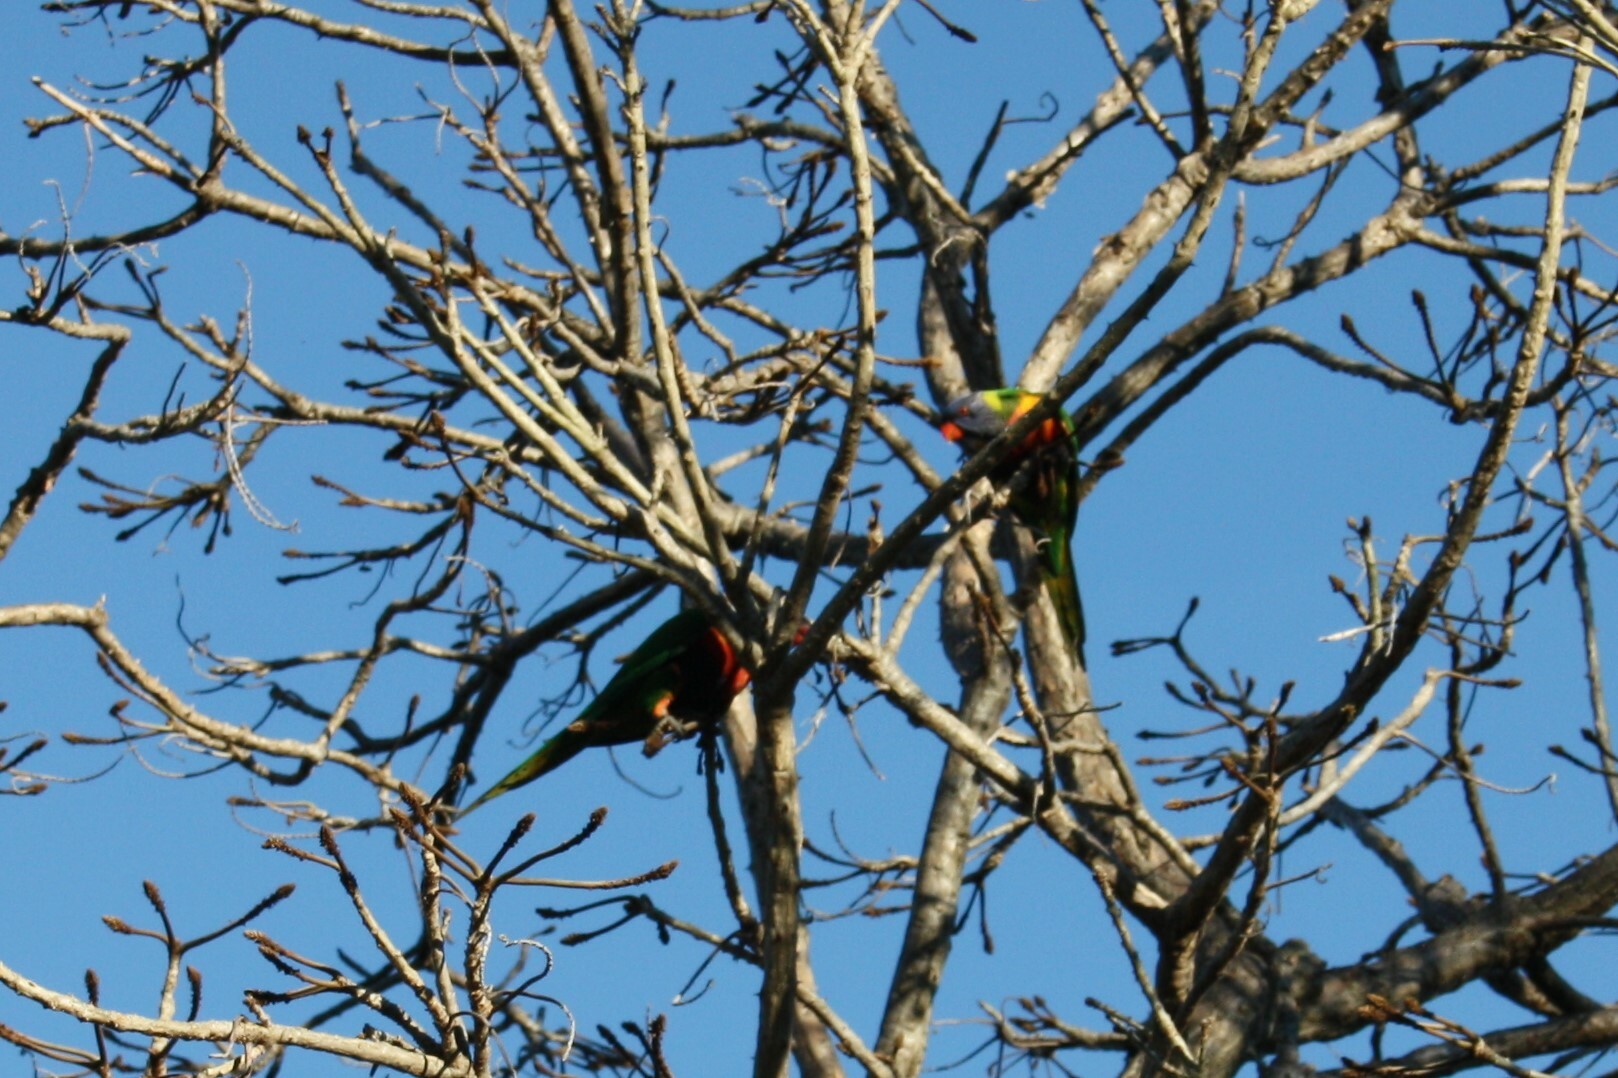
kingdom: Animalia
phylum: Chordata
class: Aves
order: Psittaciformes
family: Psittacidae
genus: Trichoglossus
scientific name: Trichoglossus haematodus
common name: Coconut lorikeet
